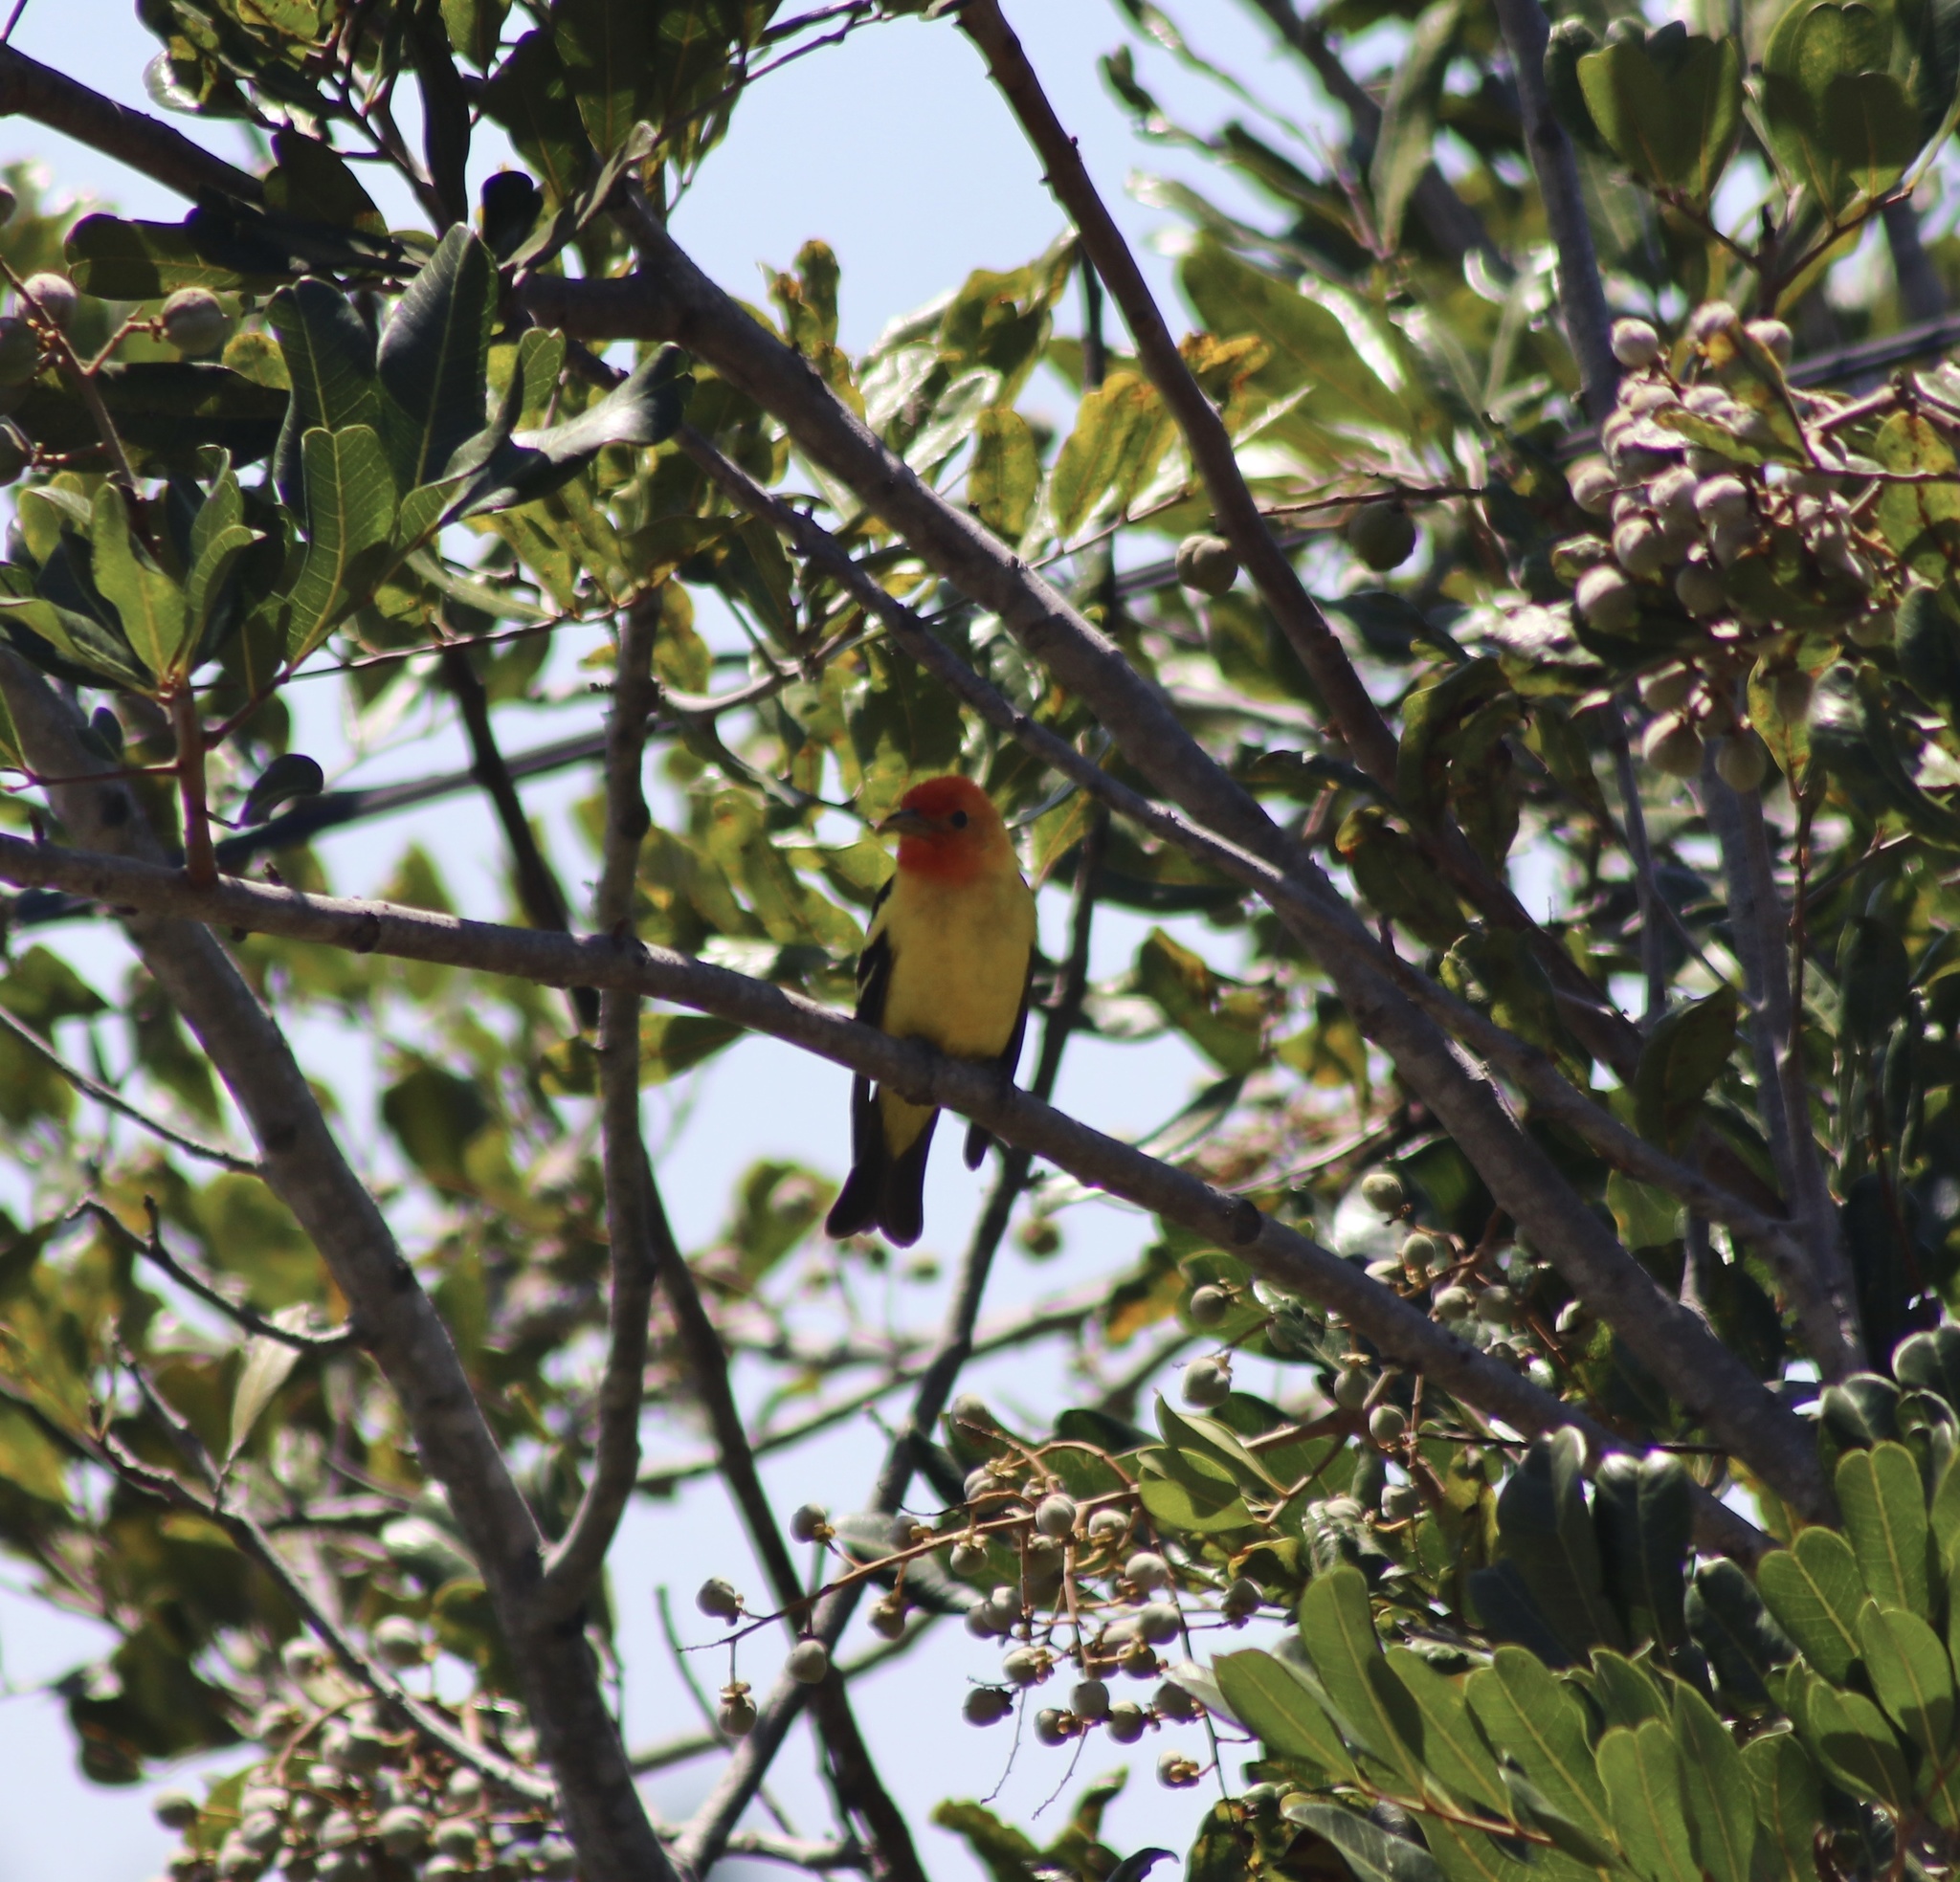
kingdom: Animalia
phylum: Chordata
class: Aves
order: Passeriformes
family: Cardinalidae
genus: Piranga
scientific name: Piranga ludoviciana
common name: Western tanager
